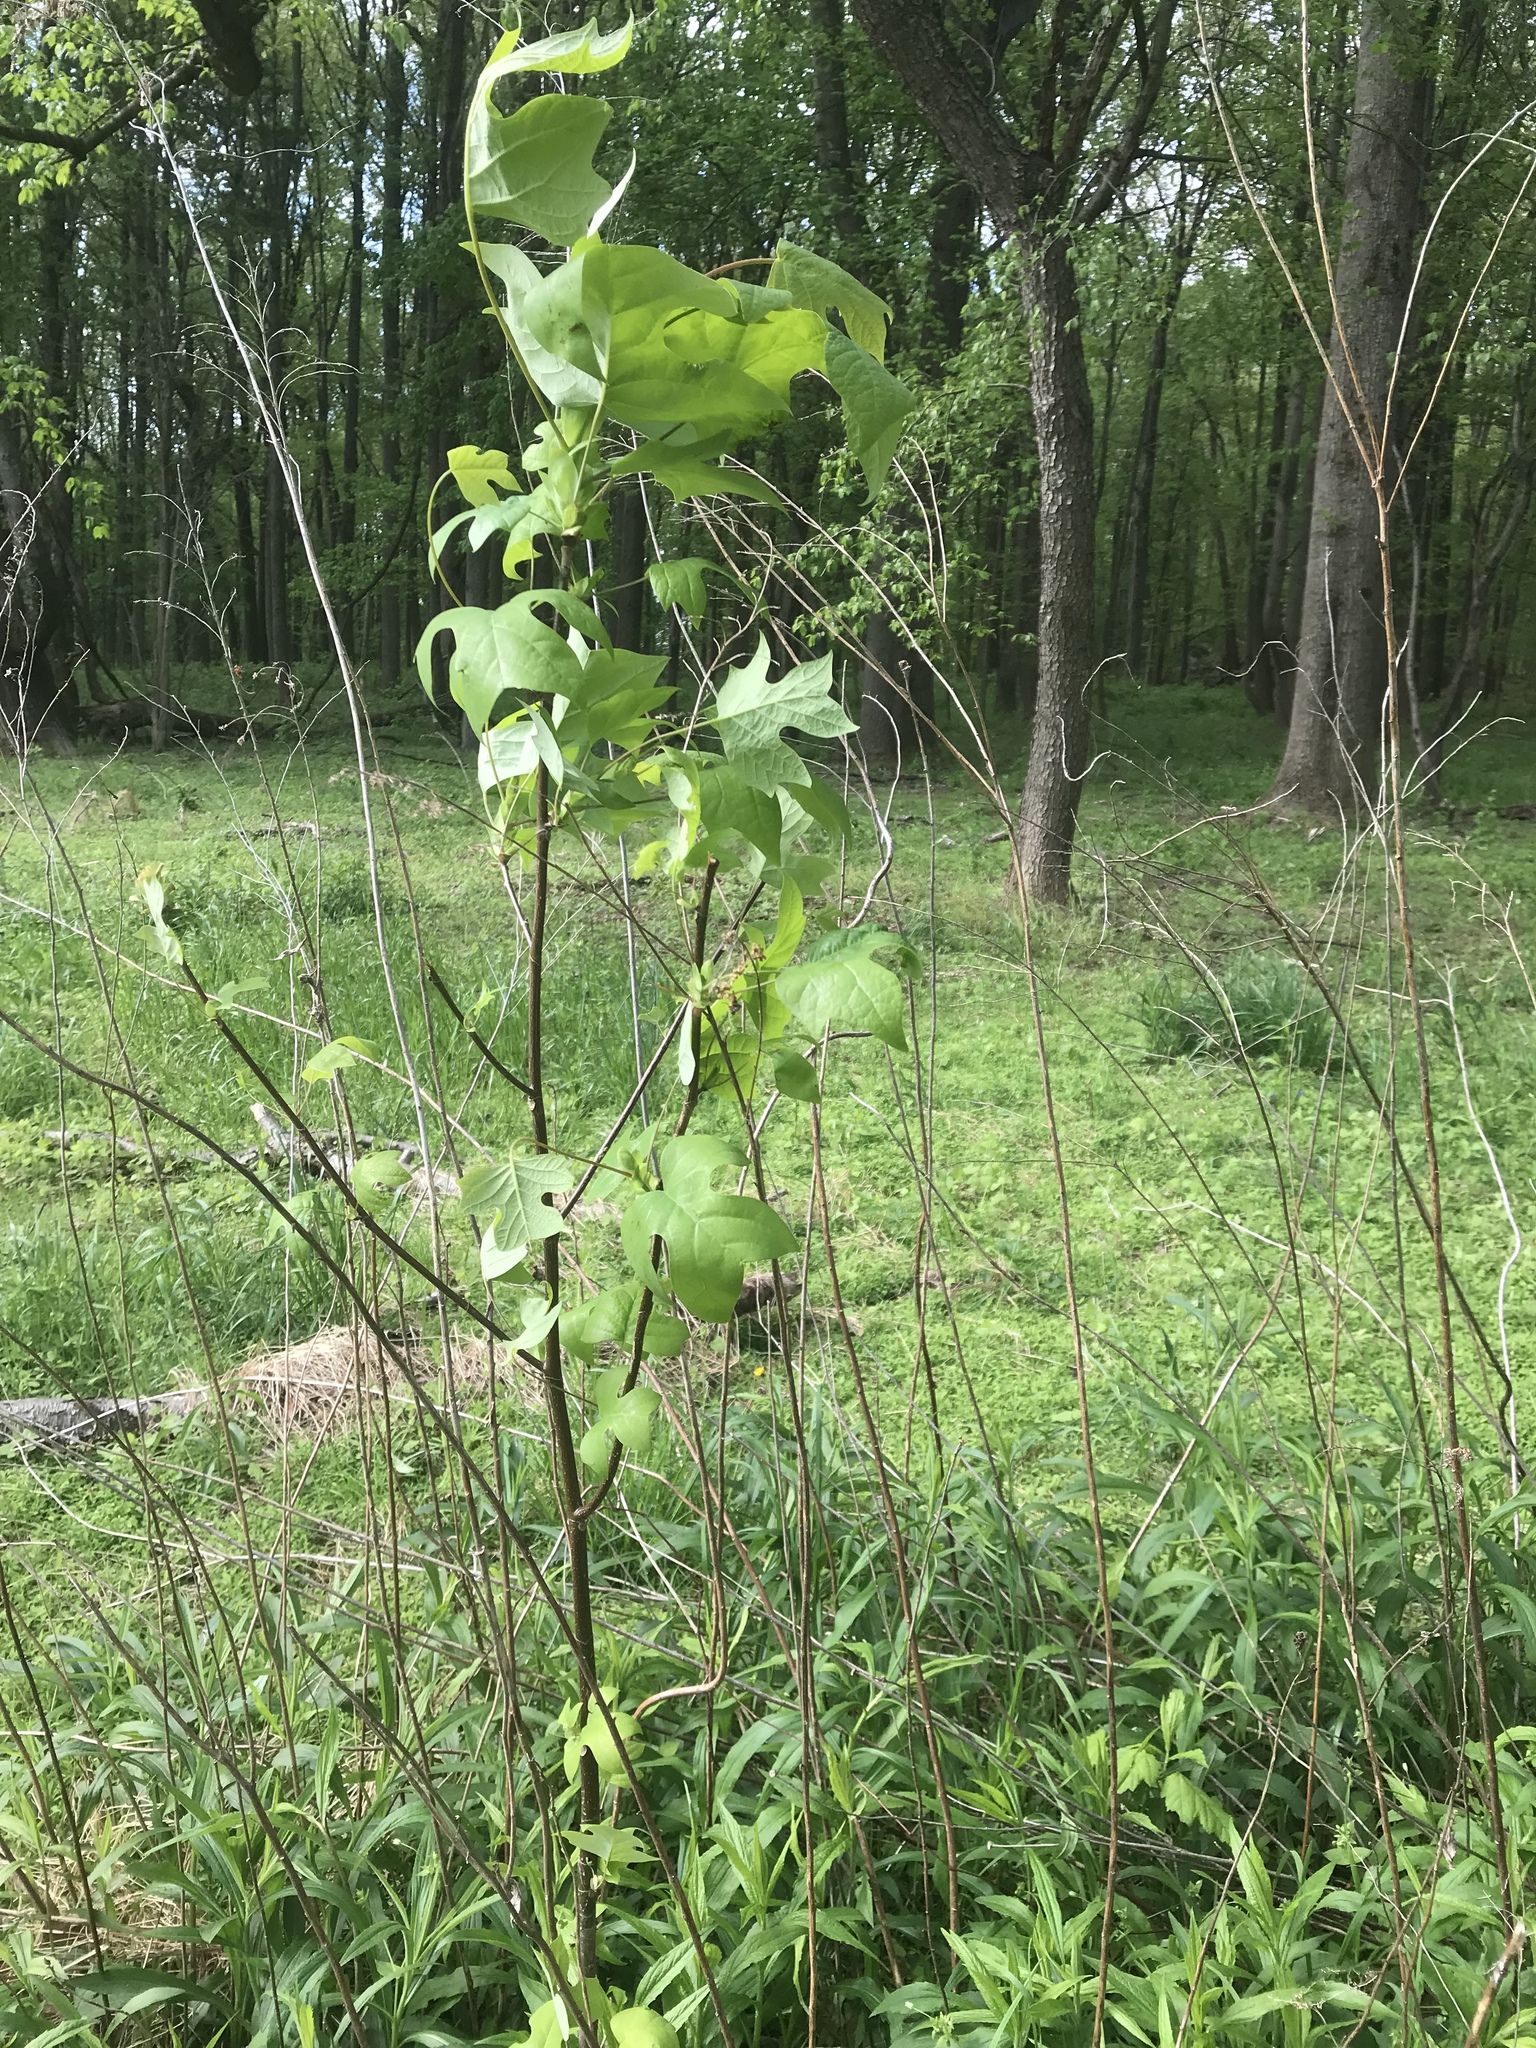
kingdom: Plantae
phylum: Tracheophyta
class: Magnoliopsida
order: Magnoliales
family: Magnoliaceae
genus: Liriodendron
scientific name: Liriodendron tulipifera
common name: Tulip tree
